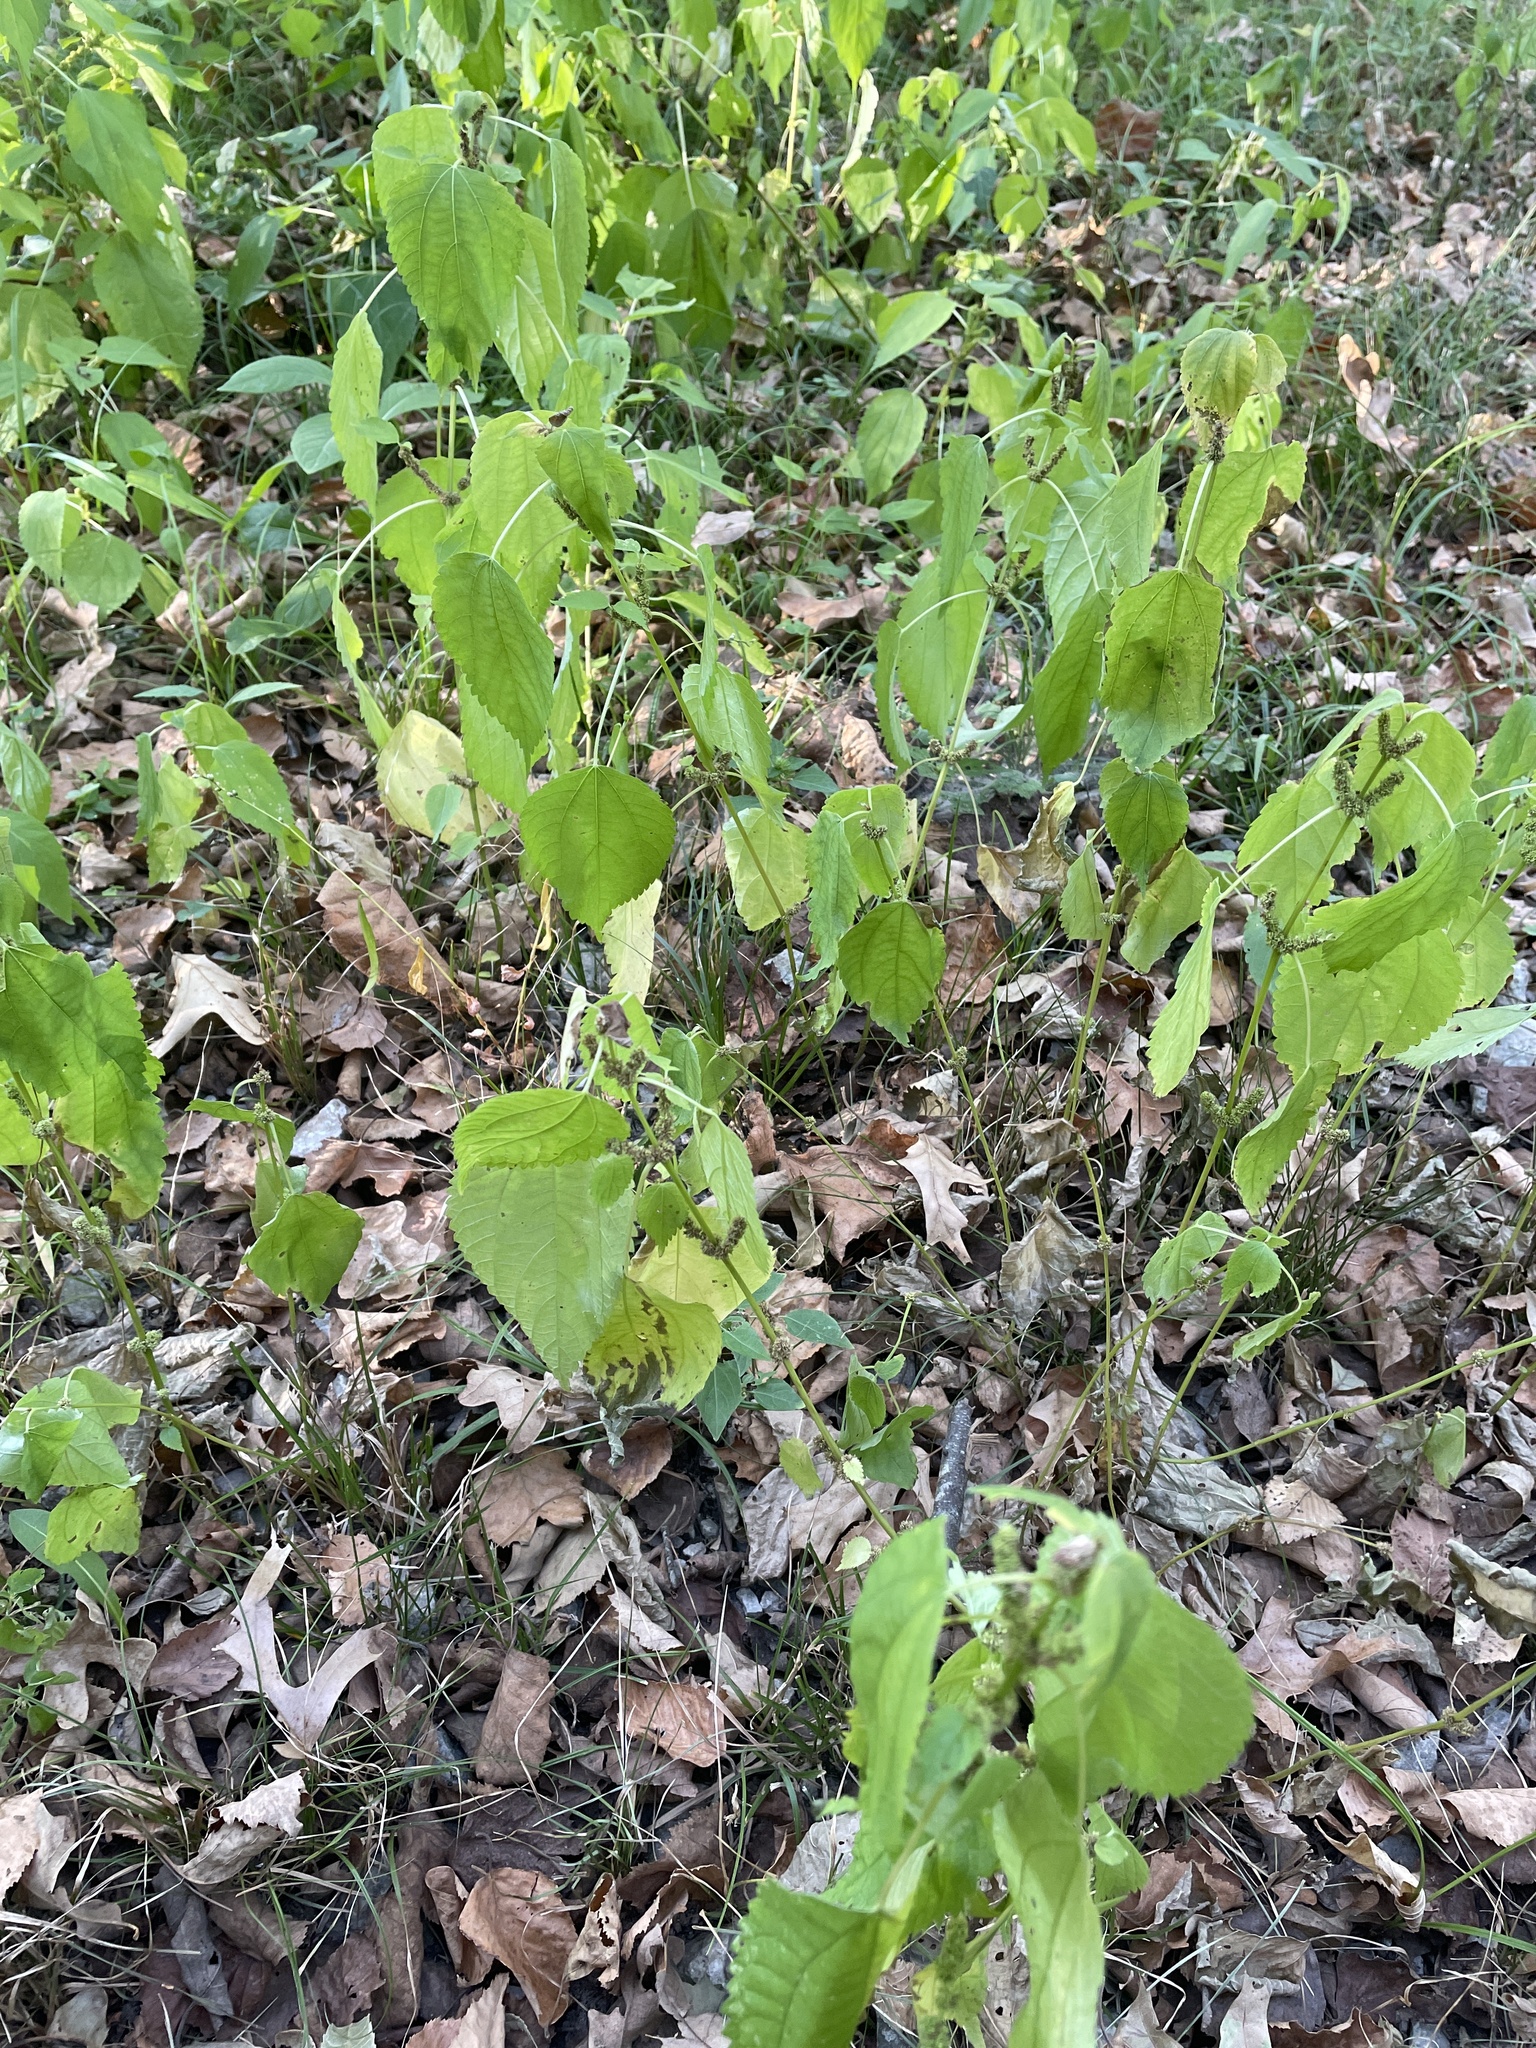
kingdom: Plantae
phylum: Tracheophyta
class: Magnoliopsida
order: Rosales
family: Urticaceae
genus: Boehmeria
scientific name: Boehmeria cylindrica
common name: Bog-hemp
